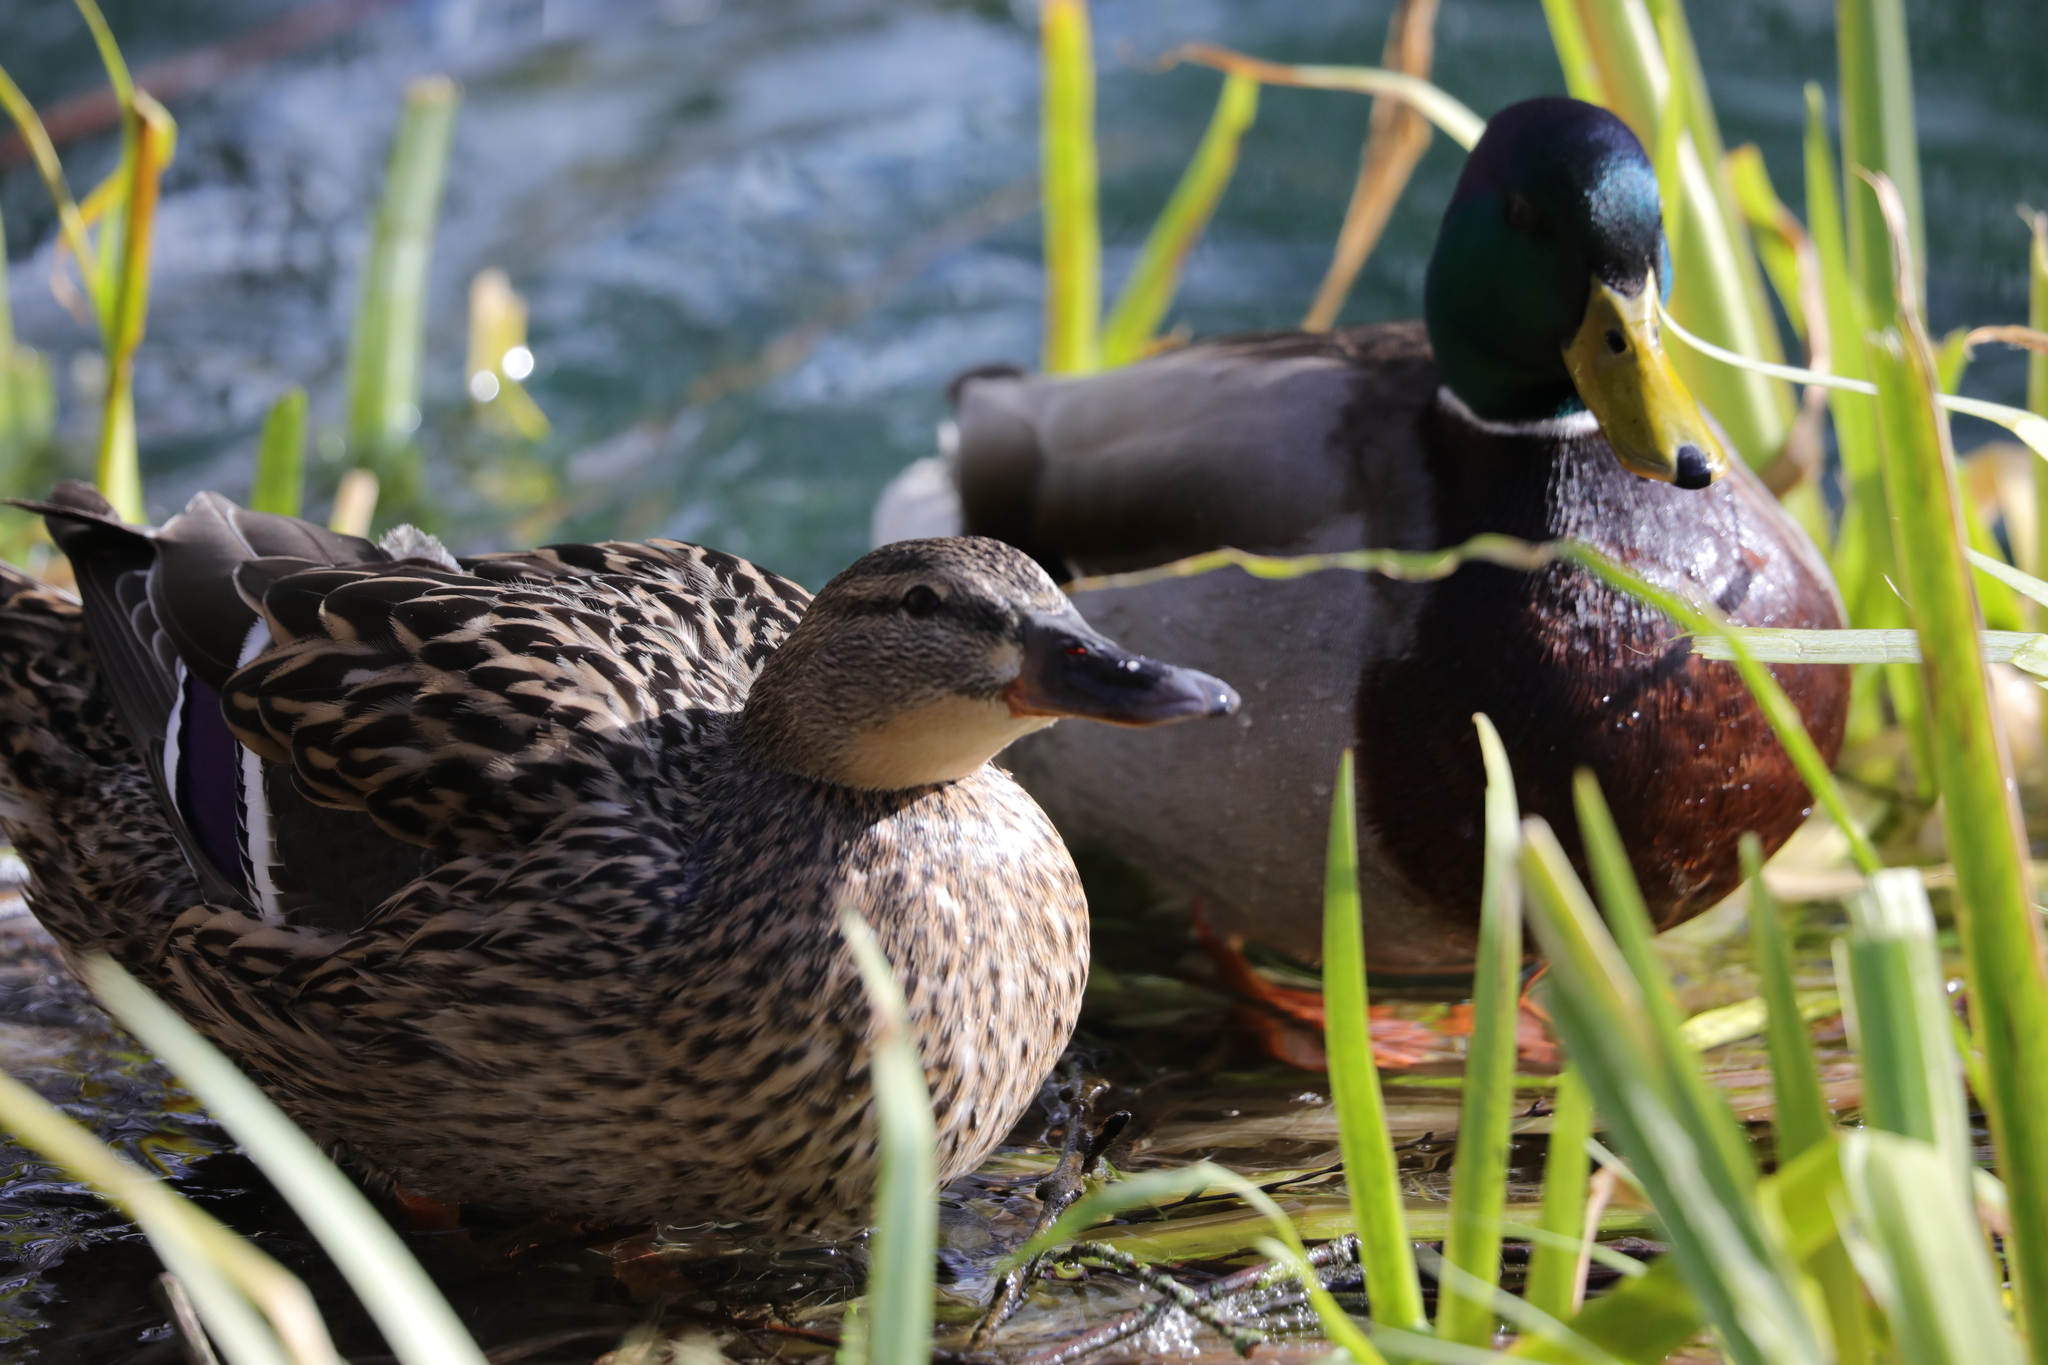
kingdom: Animalia
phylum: Chordata
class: Aves
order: Anseriformes
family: Anatidae
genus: Anas
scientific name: Anas platyrhynchos
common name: Mallard
